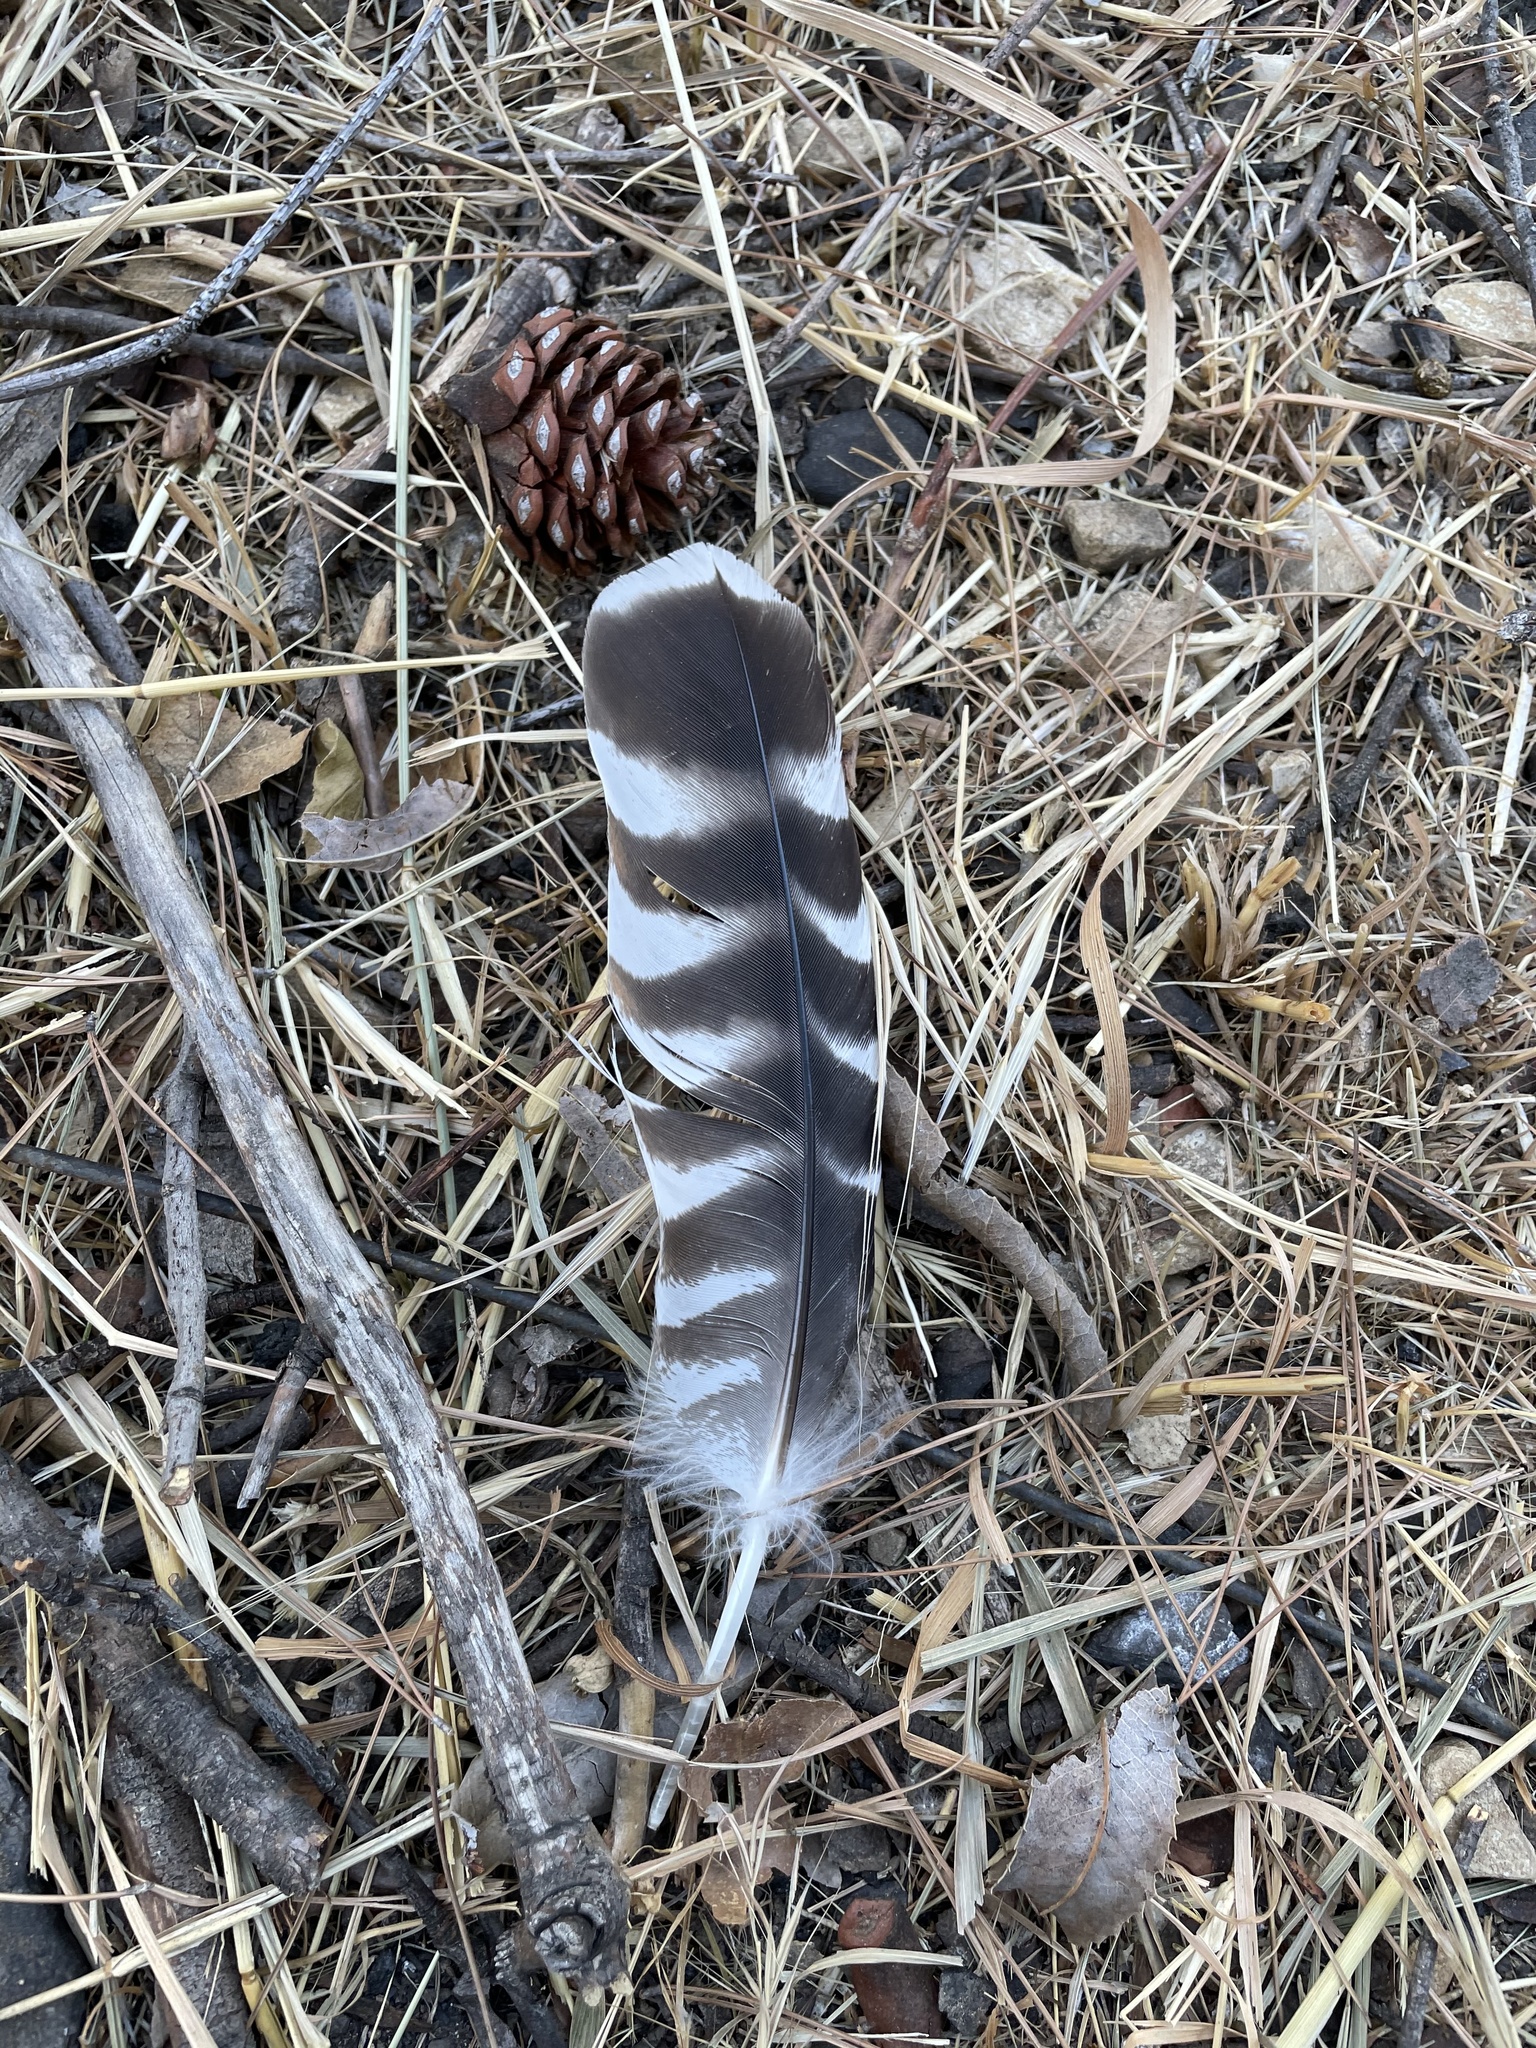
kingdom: Animalia
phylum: Chordata
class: Aves
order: Accipitriformes
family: Accipitridae
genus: Buteo
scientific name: Buteo lineatus
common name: Red-shouldered hawk
